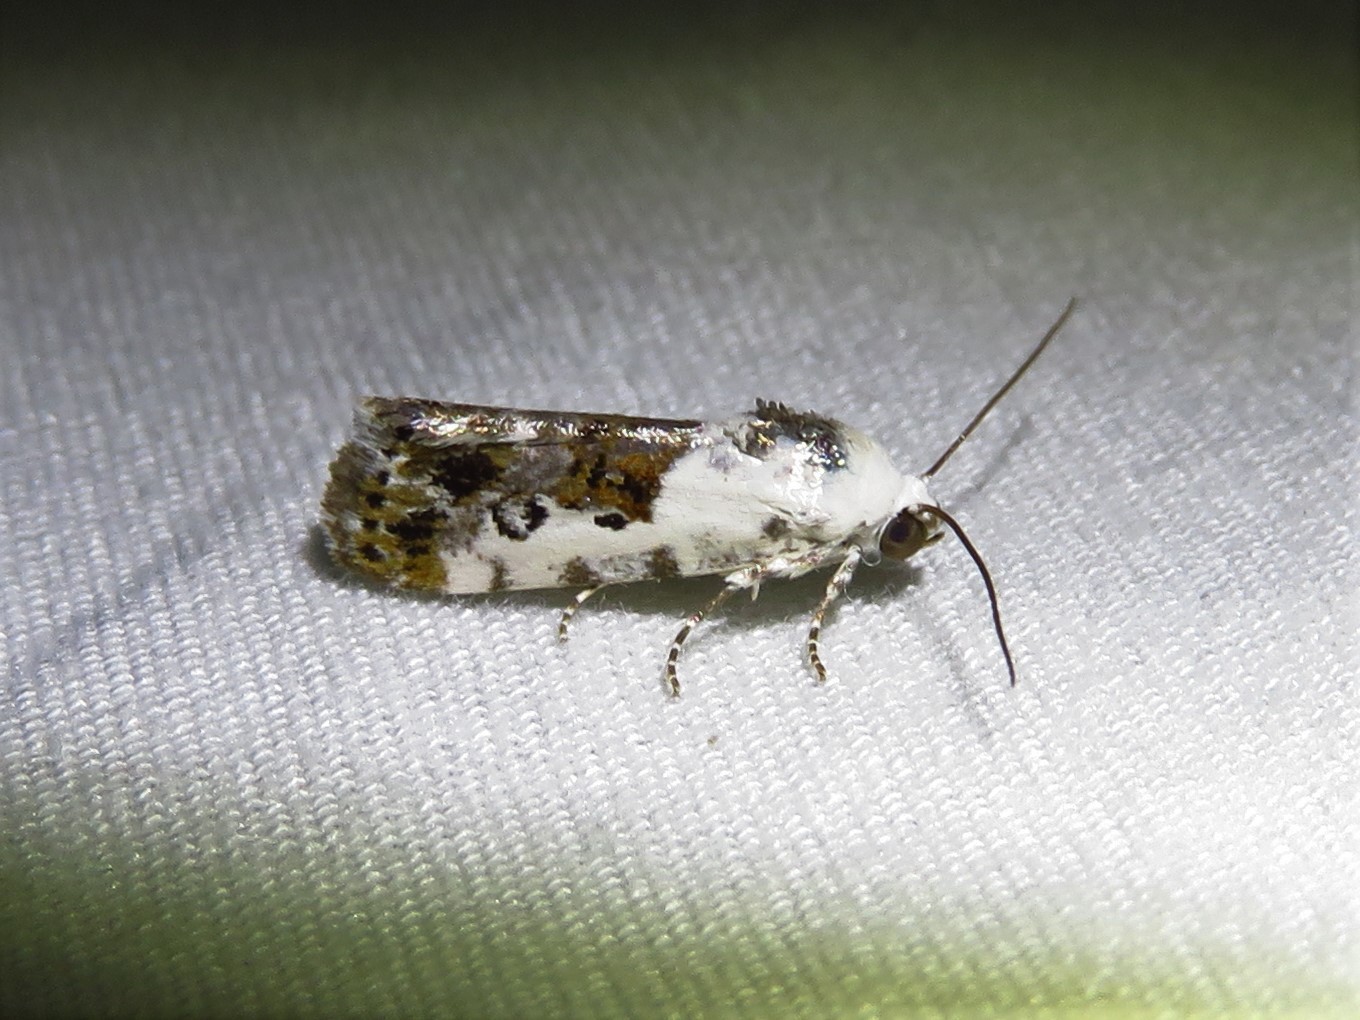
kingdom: Animalia
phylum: Arthropoda
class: Insecta
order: Lepidoptera
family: Noctuidae
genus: Acontia
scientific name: Acontia phecolisca
